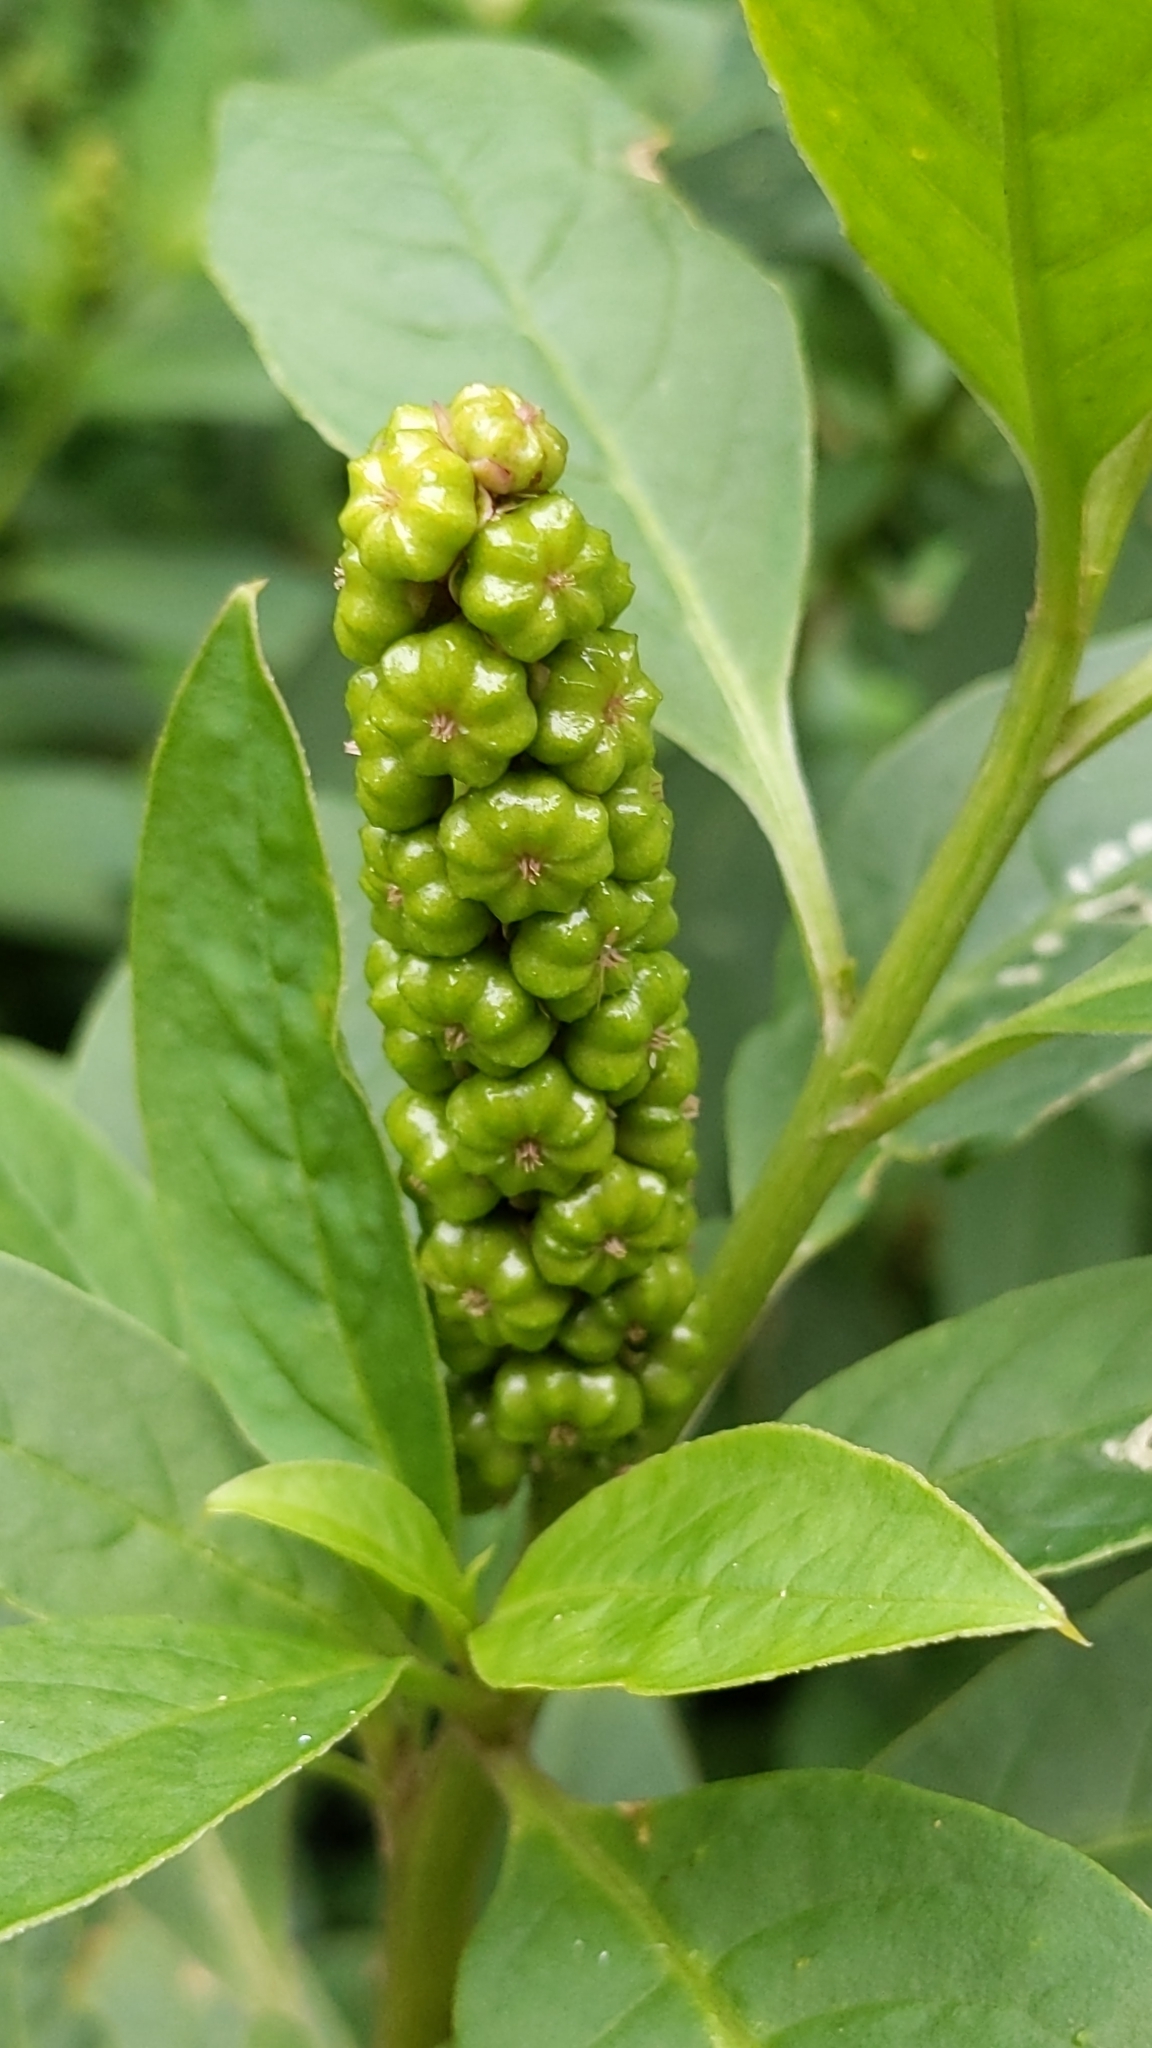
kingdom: Plantae
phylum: Tracheophyta
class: Magnoliopsida
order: Caryophyllales
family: Phytolaccaceae
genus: Phytolacca
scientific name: Phytolacca icosandra
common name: Button pokeweed
